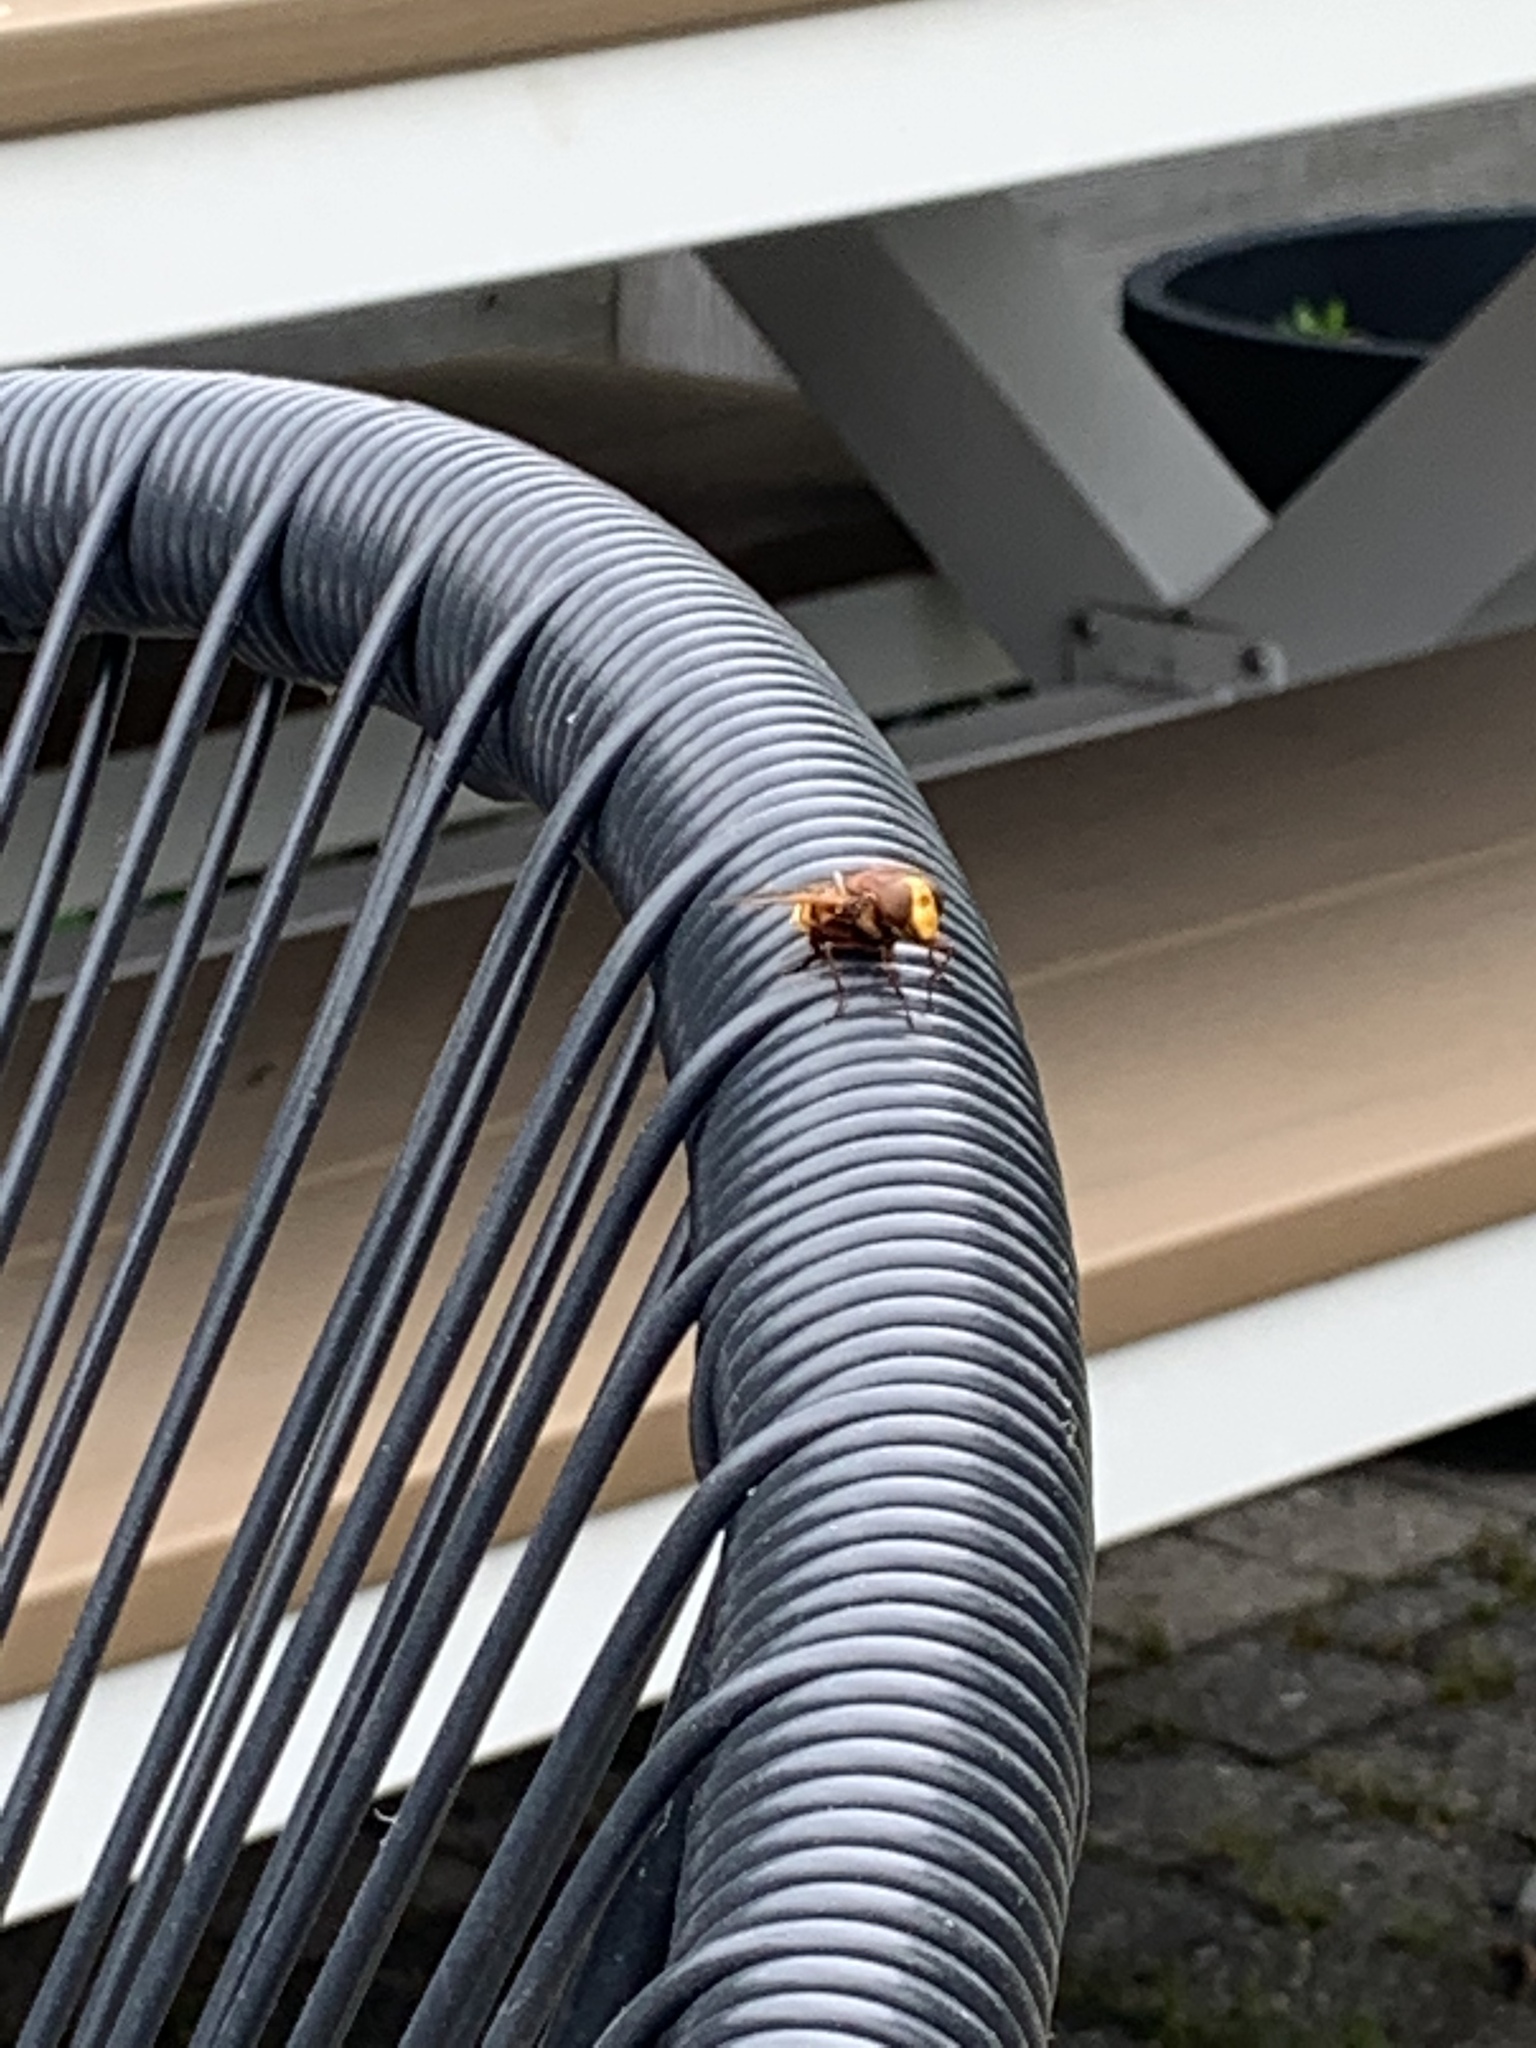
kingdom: Animalia
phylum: Arthropoda
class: Insecta
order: Diptera
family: Syrphidae
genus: Volucella
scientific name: Volucella zonaria
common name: Hornet hoverfly
